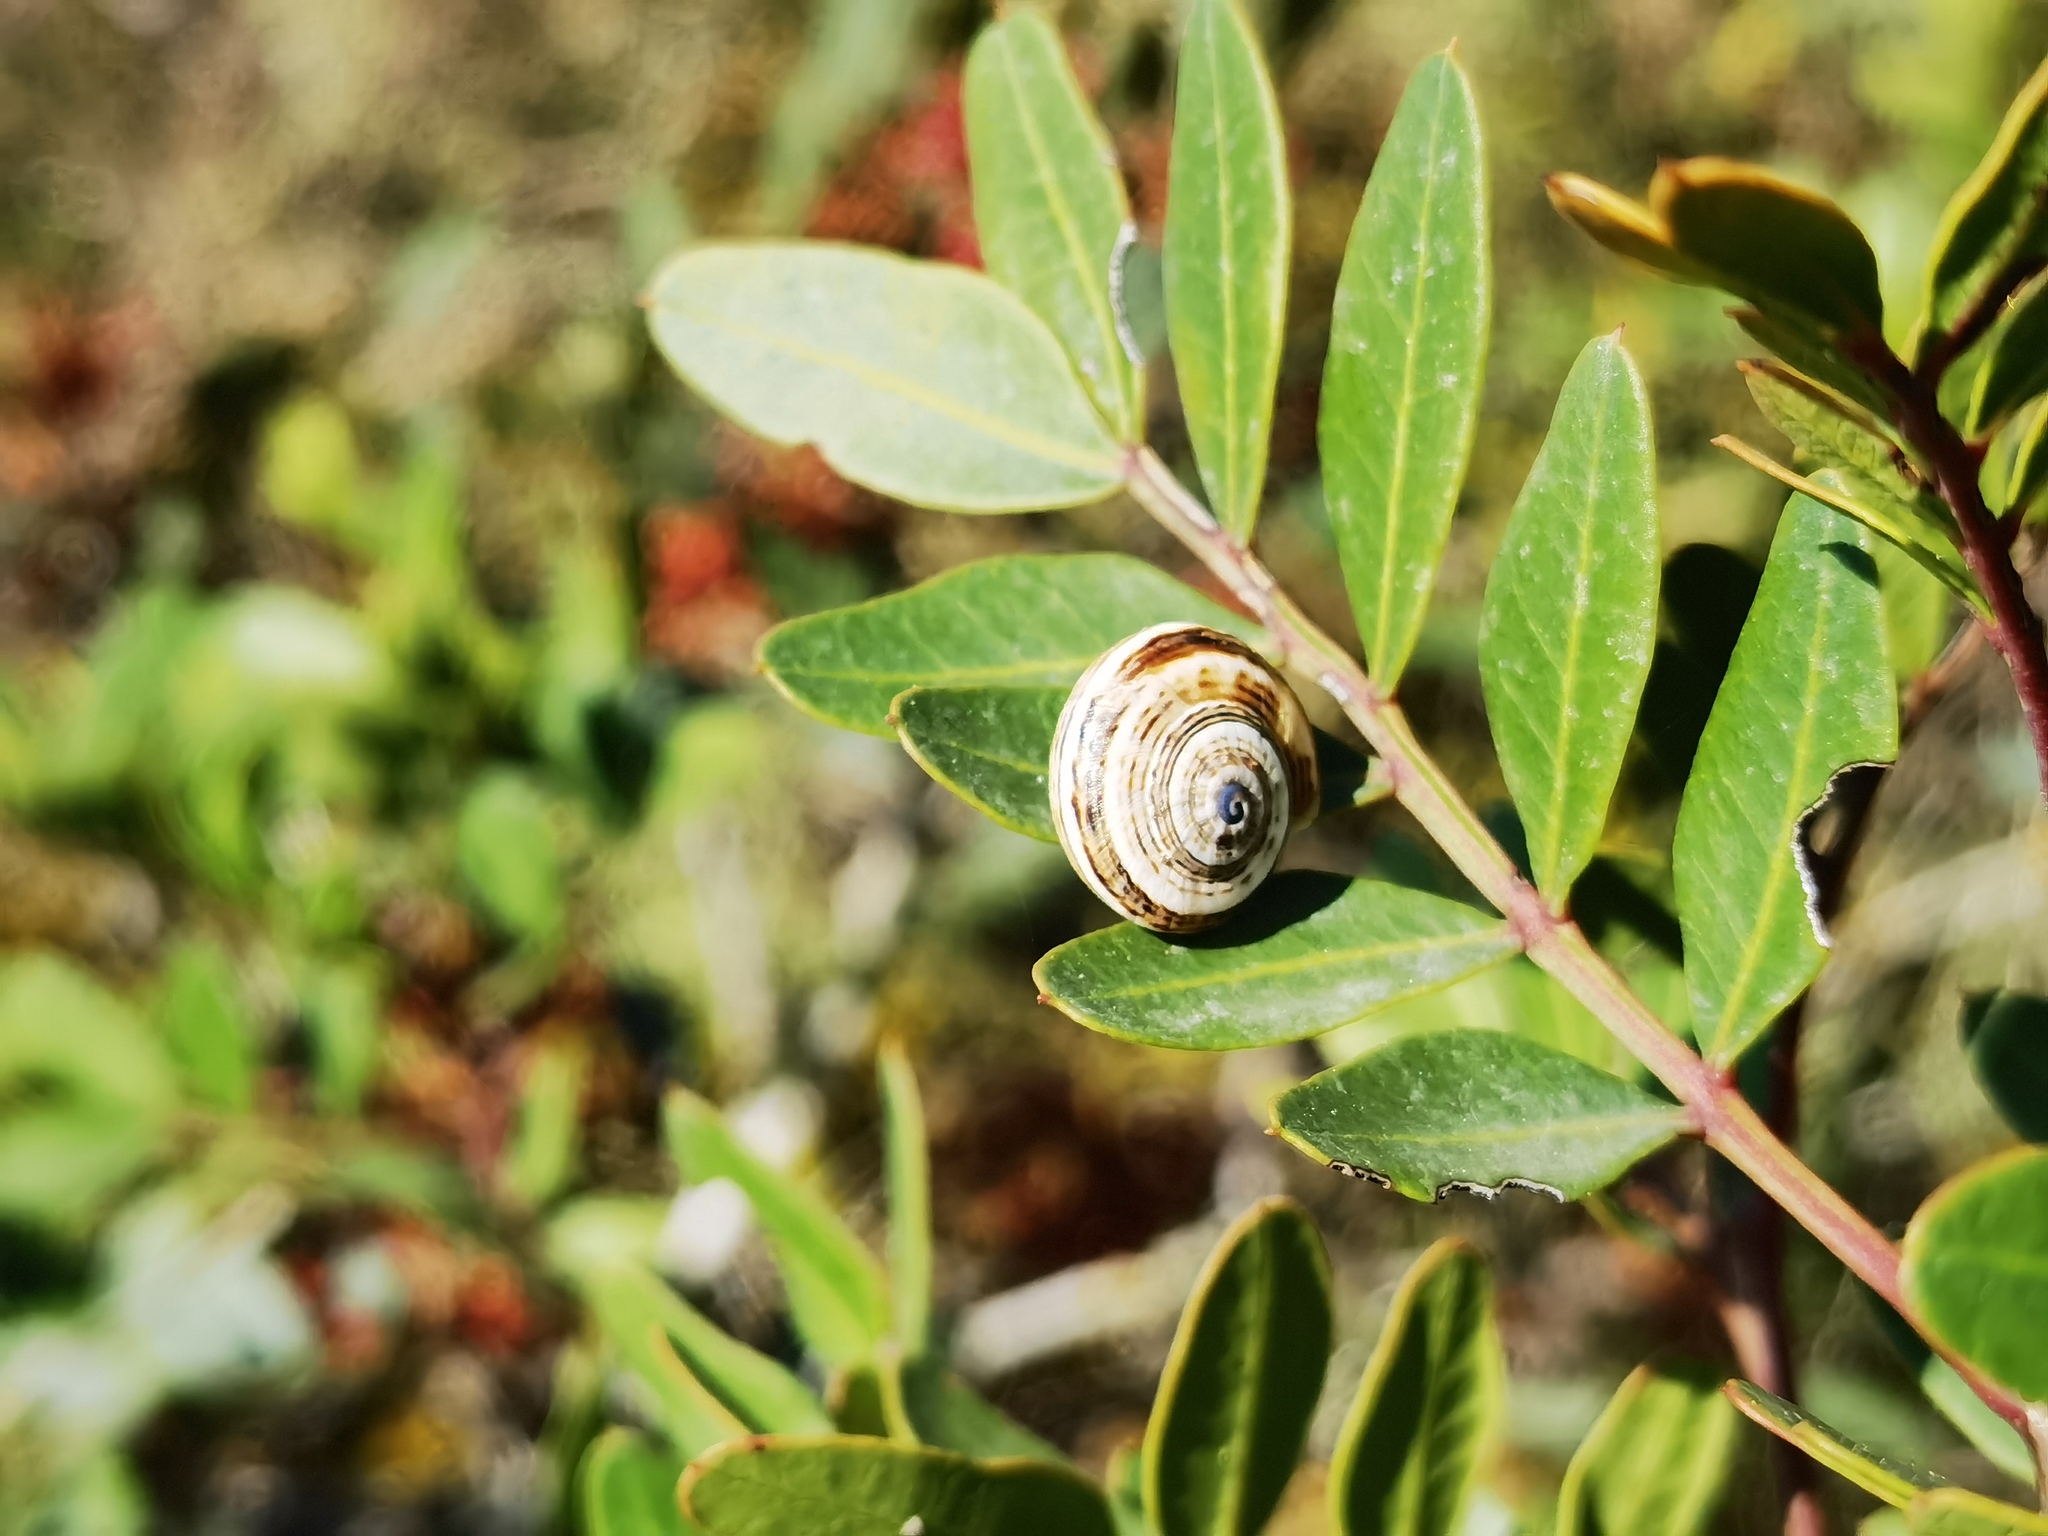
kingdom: Animalia
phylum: Mollusca
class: Gastropoda
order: Stylommatophora
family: Helicidae
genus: Theba
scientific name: Theba pisana
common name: White snail
